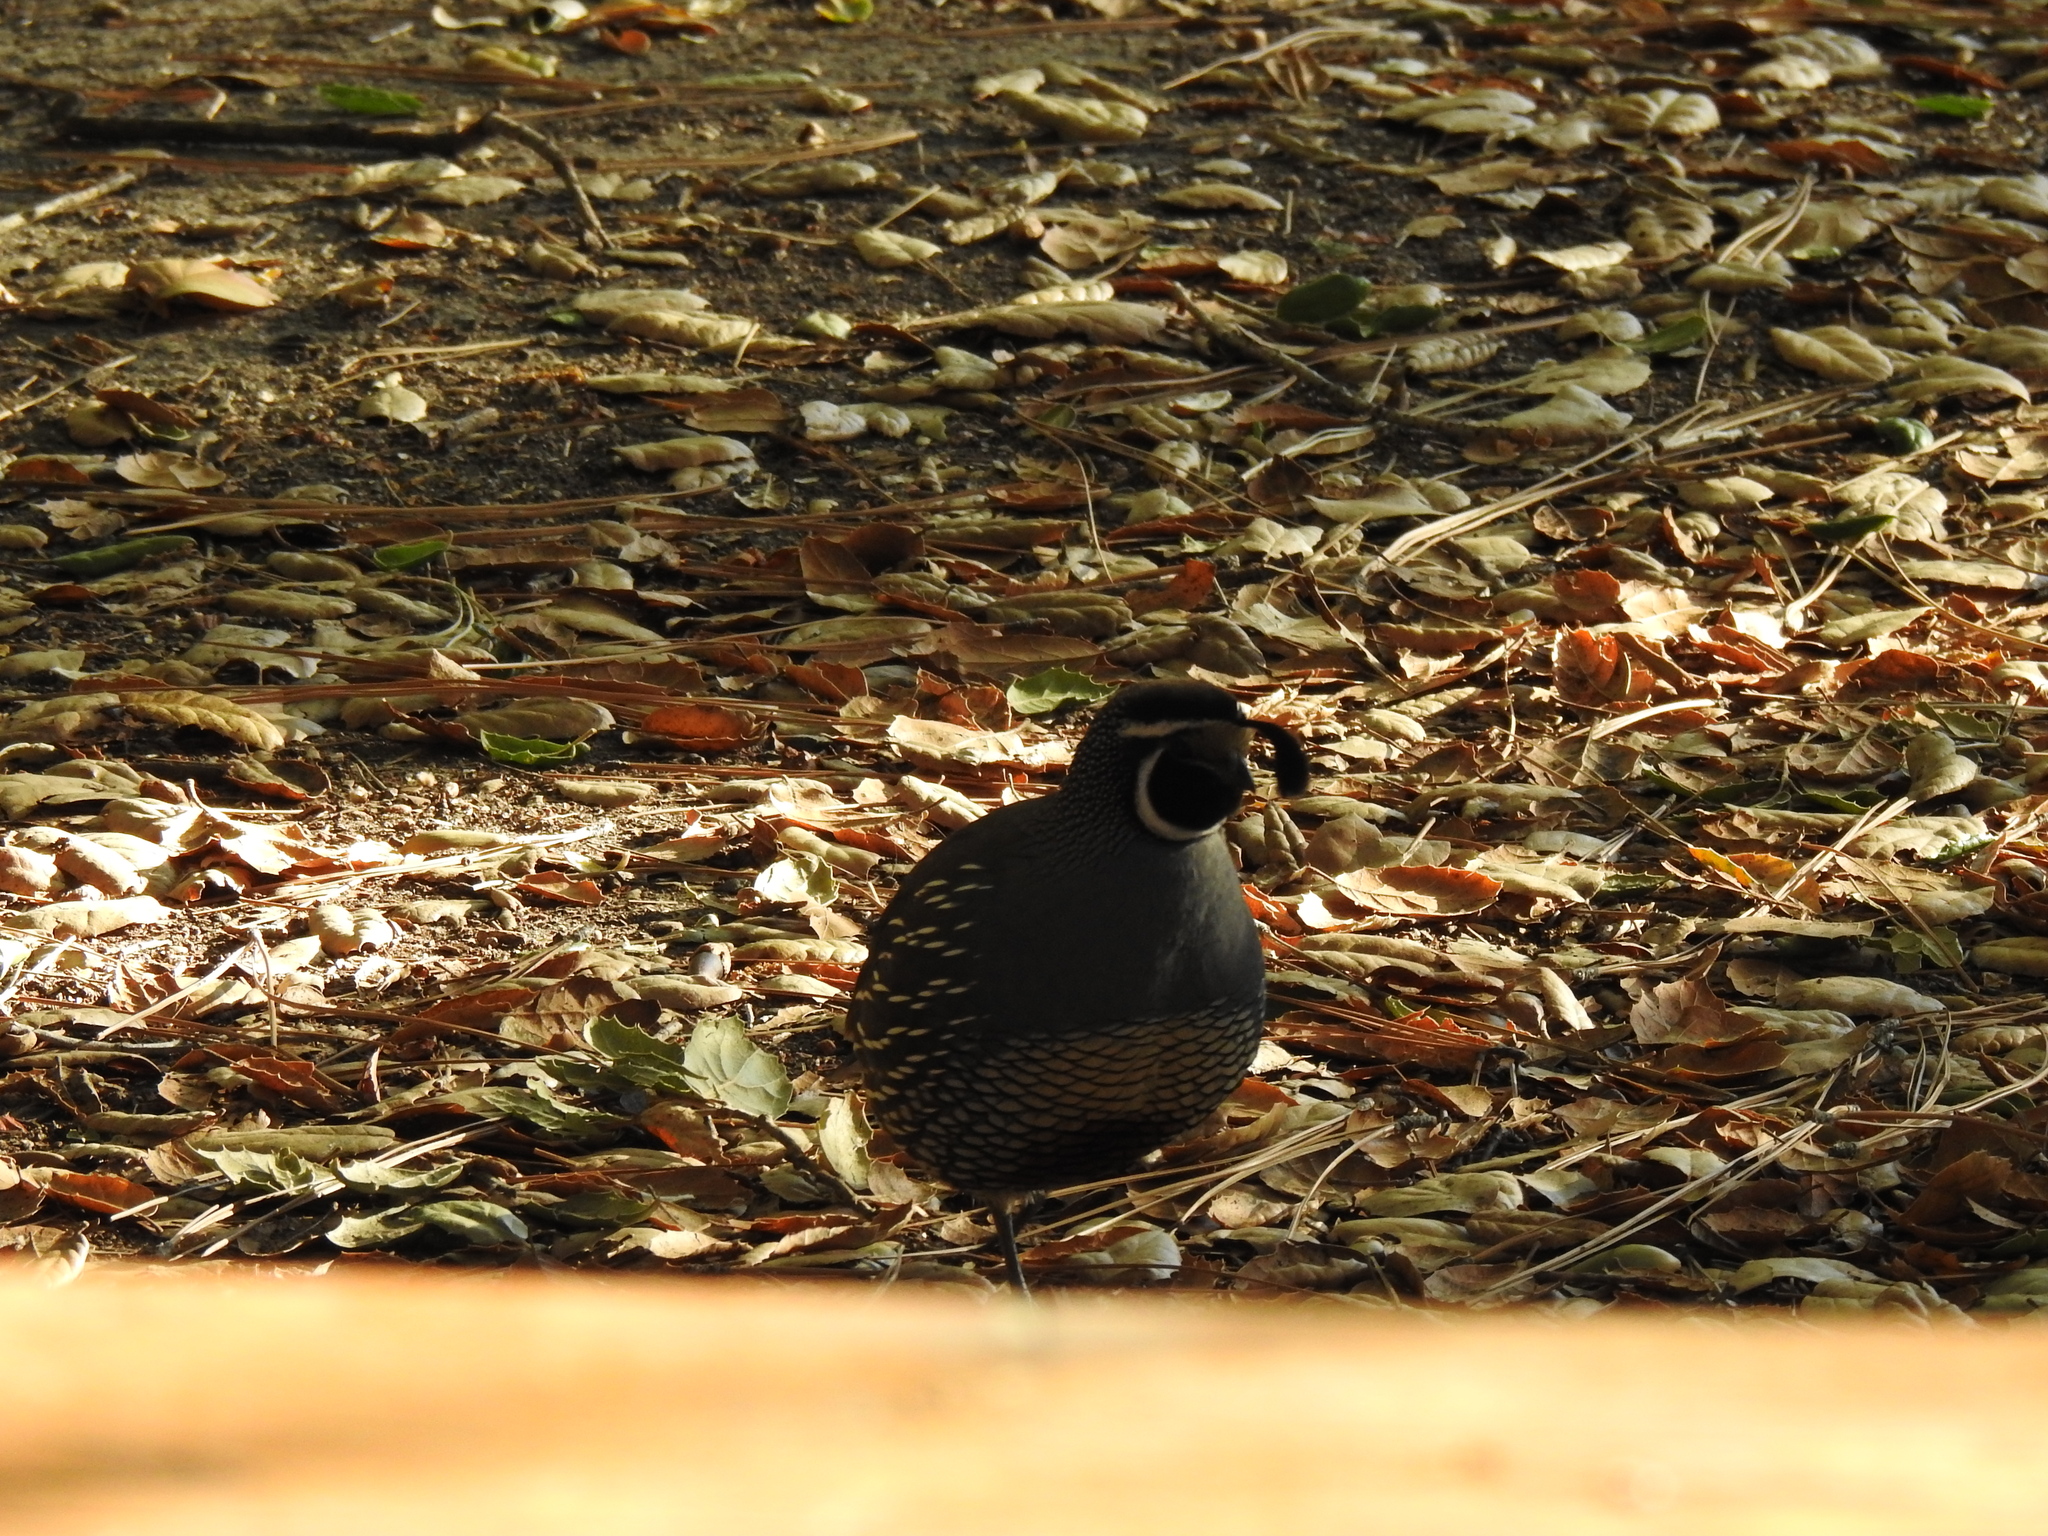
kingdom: Animalia
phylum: Chordata
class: Aves
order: Galliformes
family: Odontophoridae
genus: Callipepla
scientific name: Callipepla californica
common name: California quail
